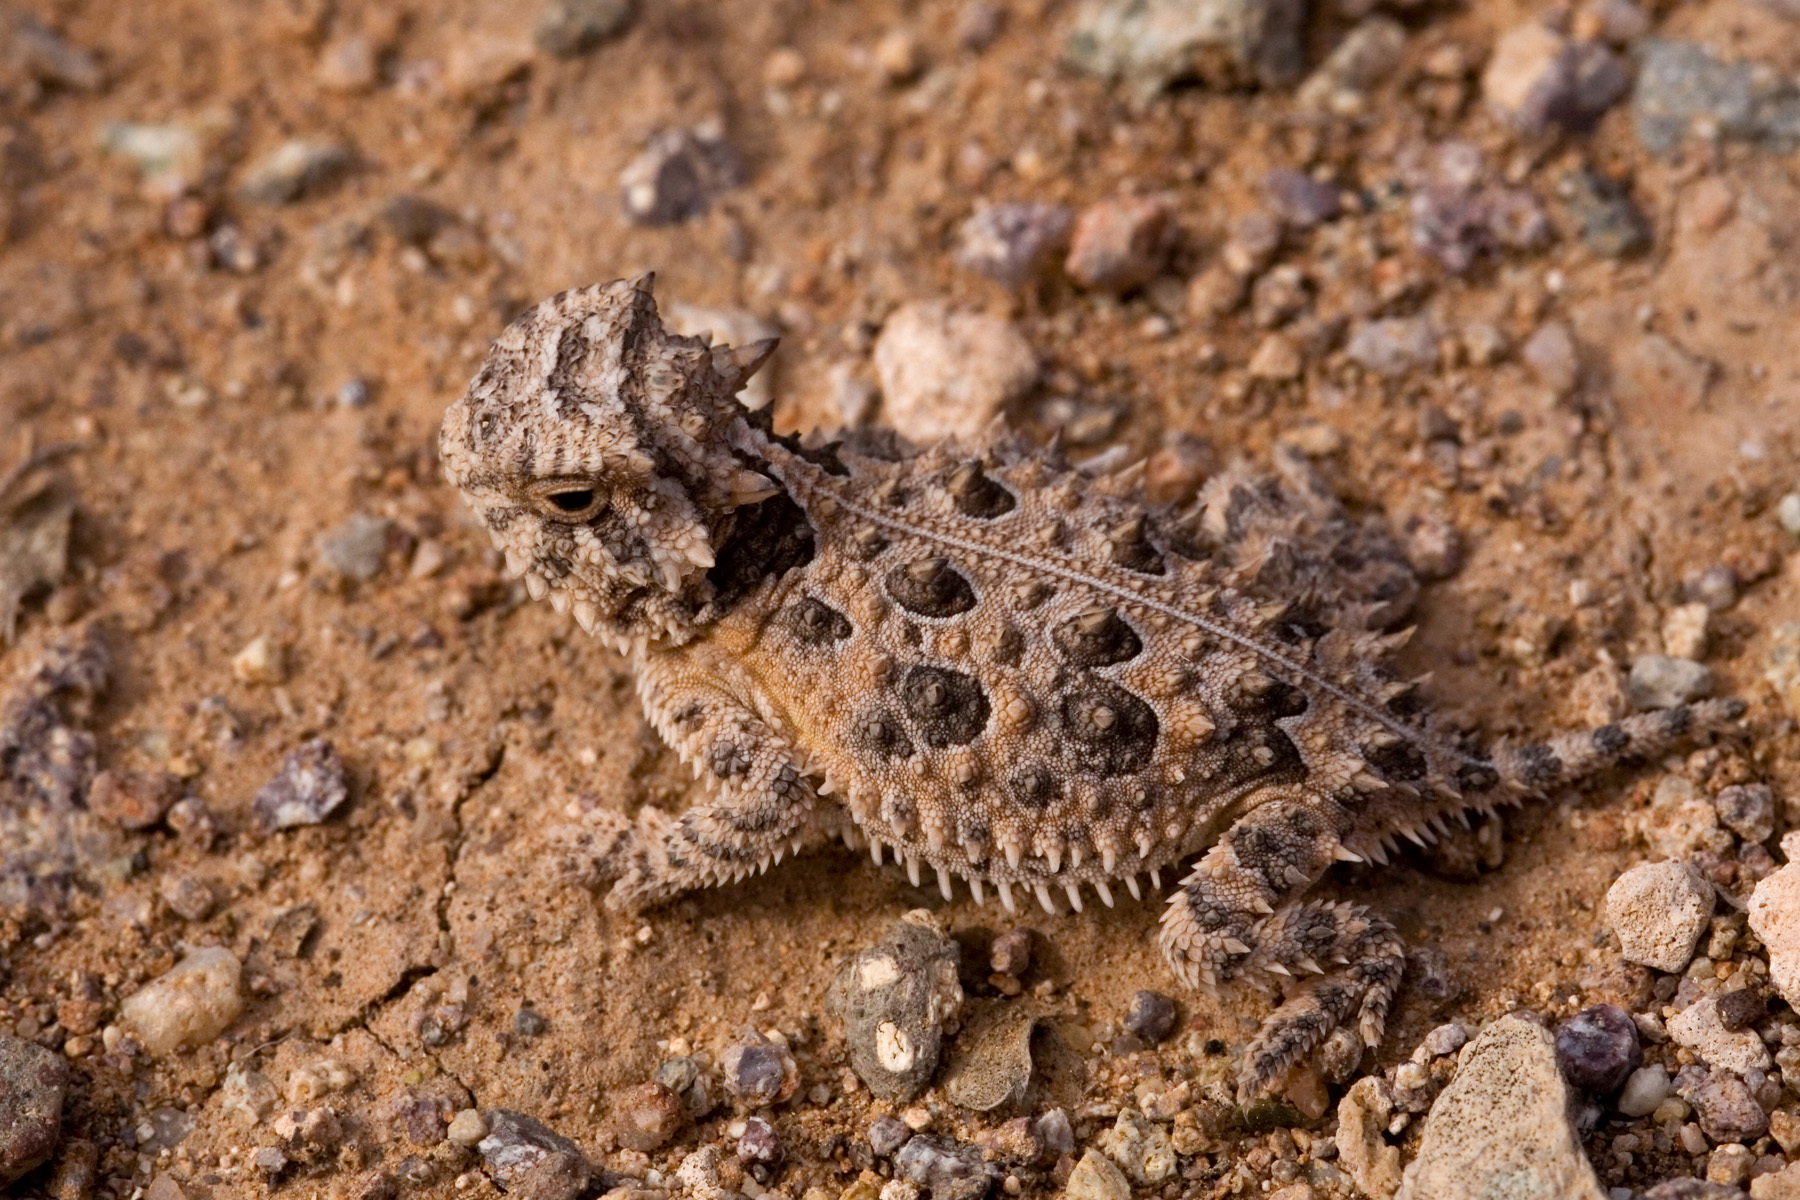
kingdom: Animalia
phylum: Chordata
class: Squamata
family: Phrynosomatidae
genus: Phrynosoma
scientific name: Phrynosoma cornutum
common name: Texas horned lizard
